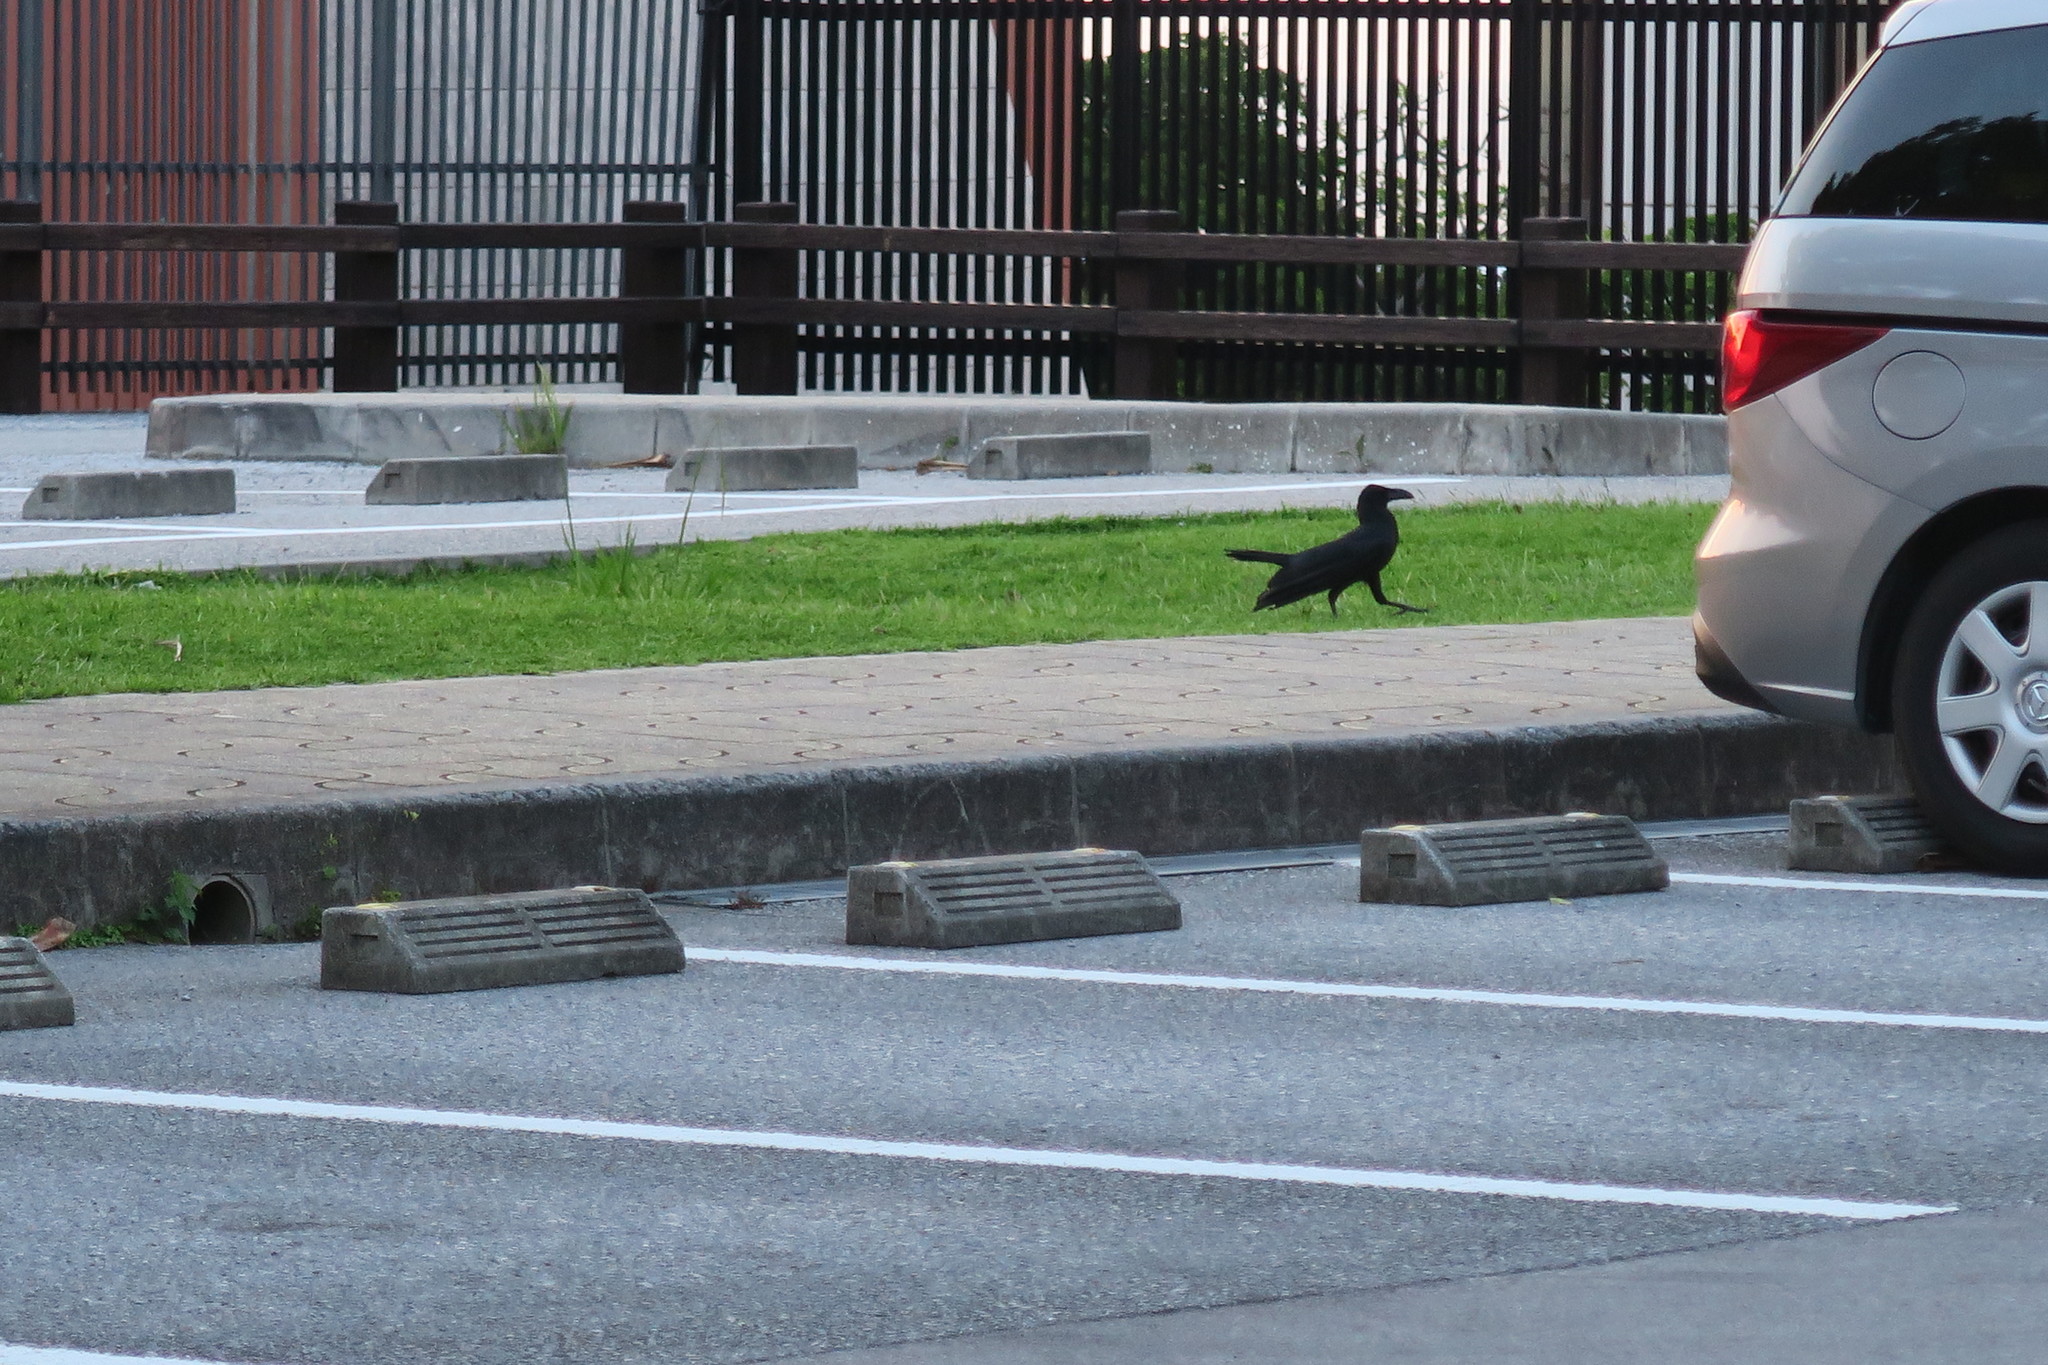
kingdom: Animalia
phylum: Chordata
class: Aves
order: Passeriformes
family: Corvidae
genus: Corvus
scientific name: Corvus macrorhynchos
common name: Large-billed crow
